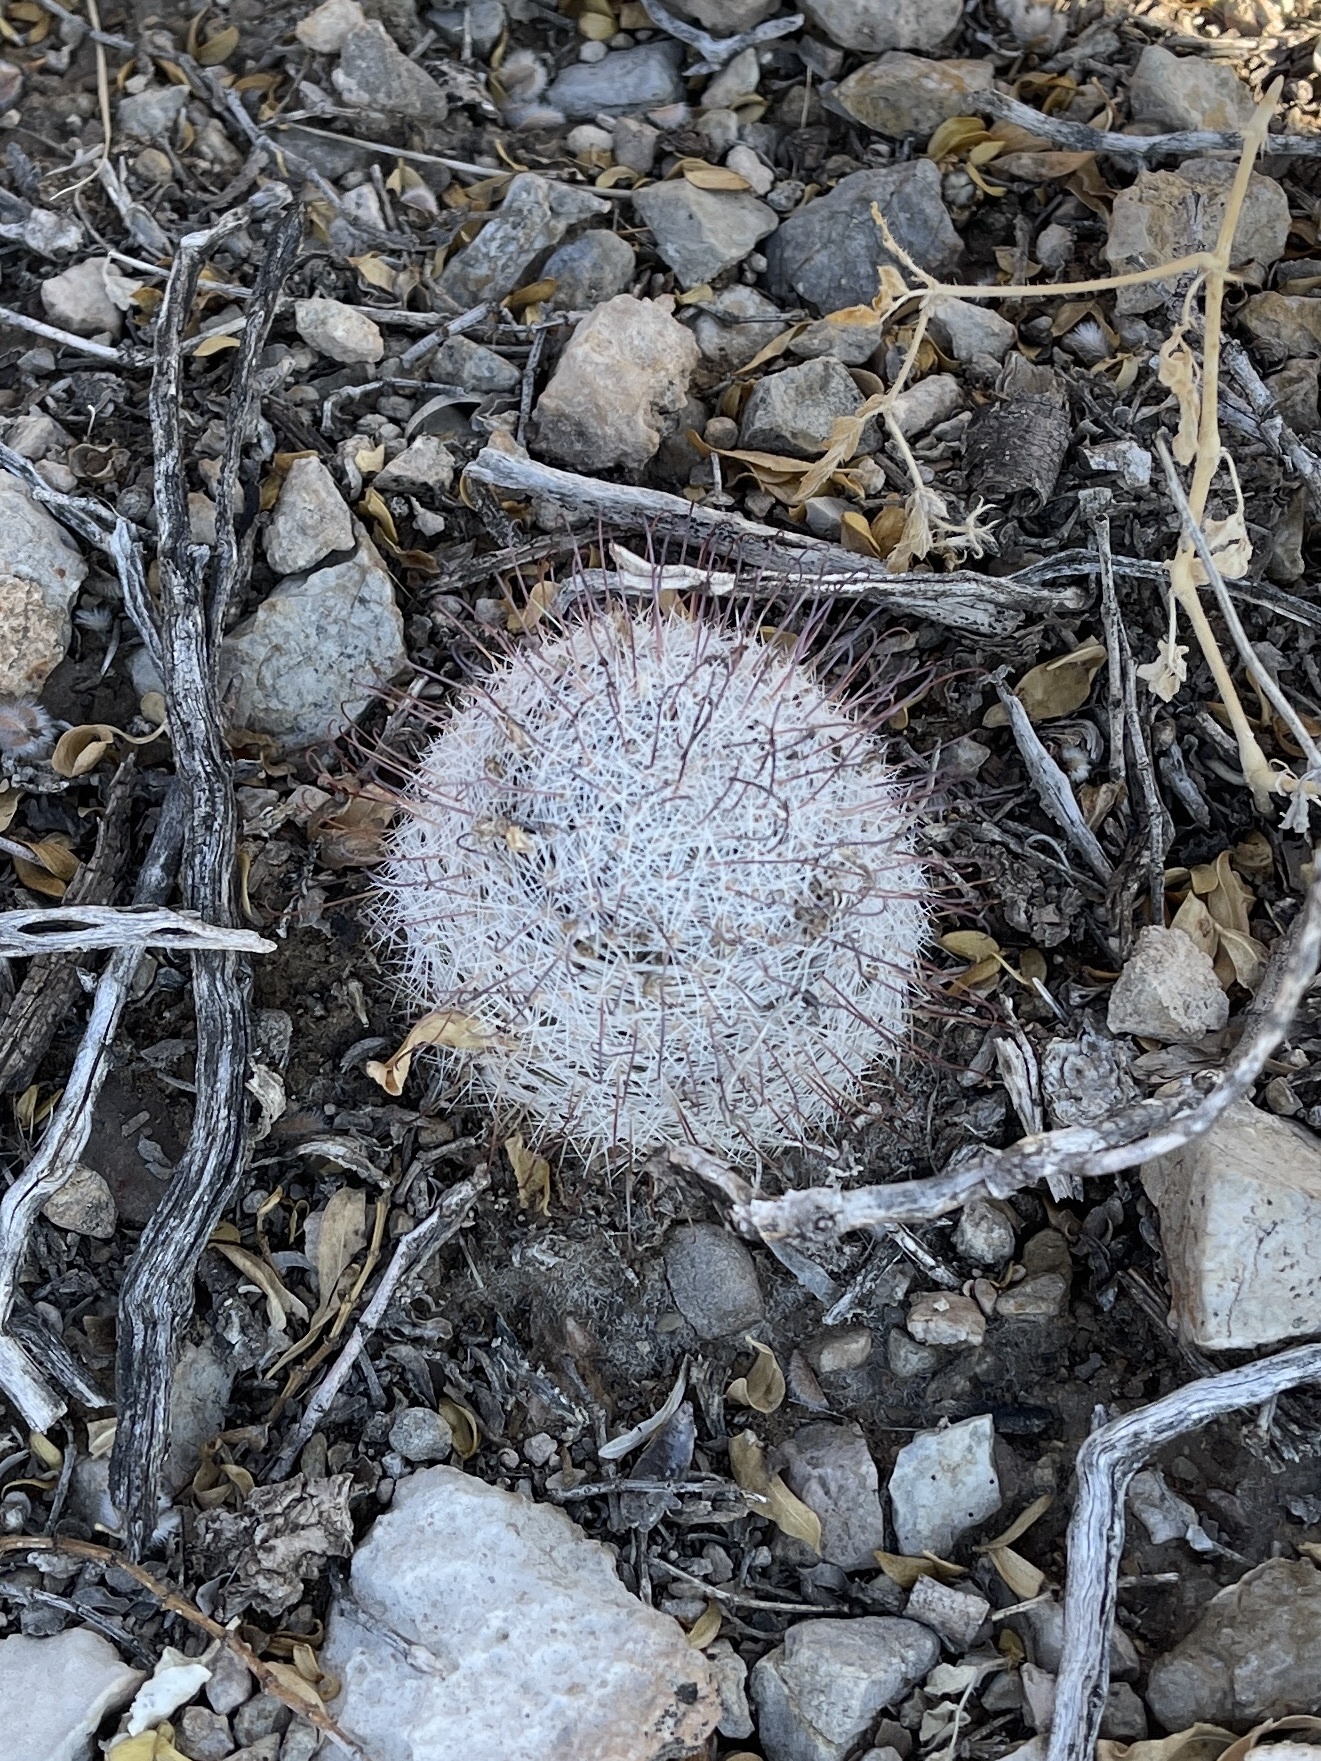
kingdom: Plantae
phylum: Tracheophyta
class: Magnoliopsida
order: Caryophyllales
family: Cactaceae
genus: Cochemiea
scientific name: Cochemiea grahamii
